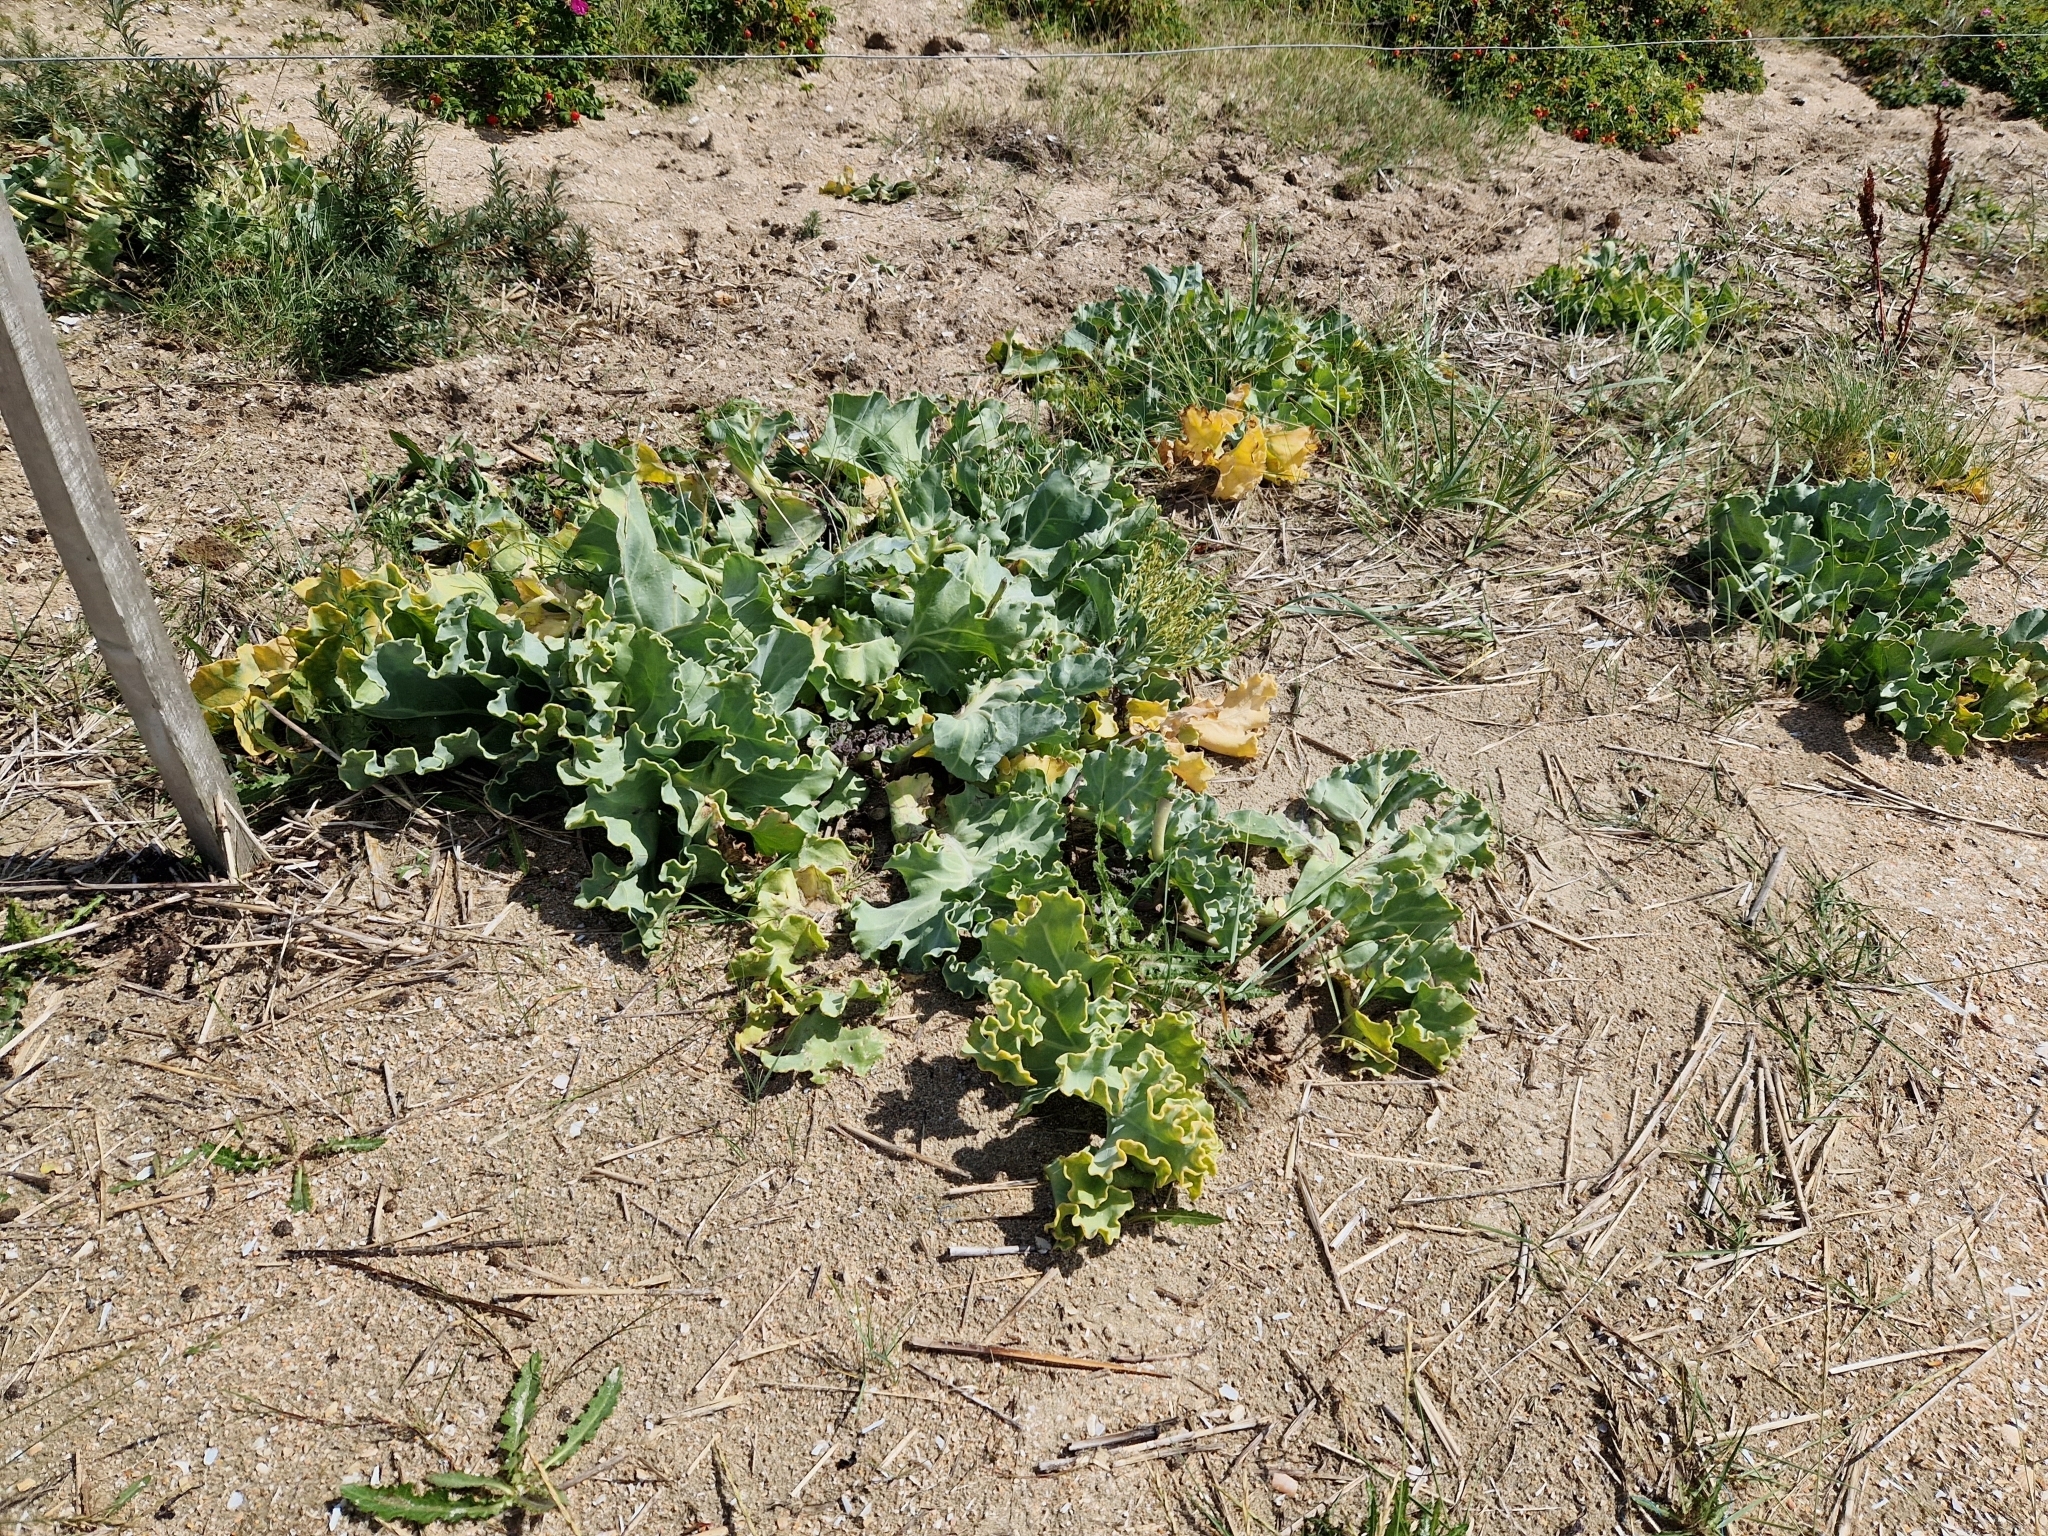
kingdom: Plantae
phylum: Tracheophyta
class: Magnoliopsida
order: Brassicales
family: Brassicaceae
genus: Crambe
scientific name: Crambe maritima
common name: Sea-kale
